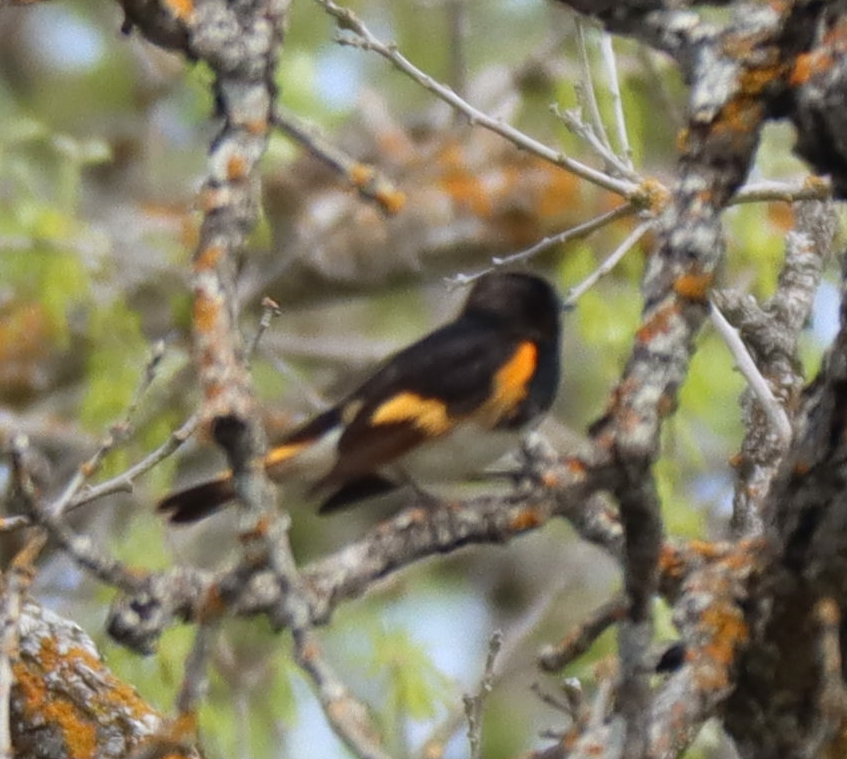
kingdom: Animalia
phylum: Chordata
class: Aves
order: Passeriformes
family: Parulidae
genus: Setophaga
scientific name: Setophaga ruticilla
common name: American redstart
